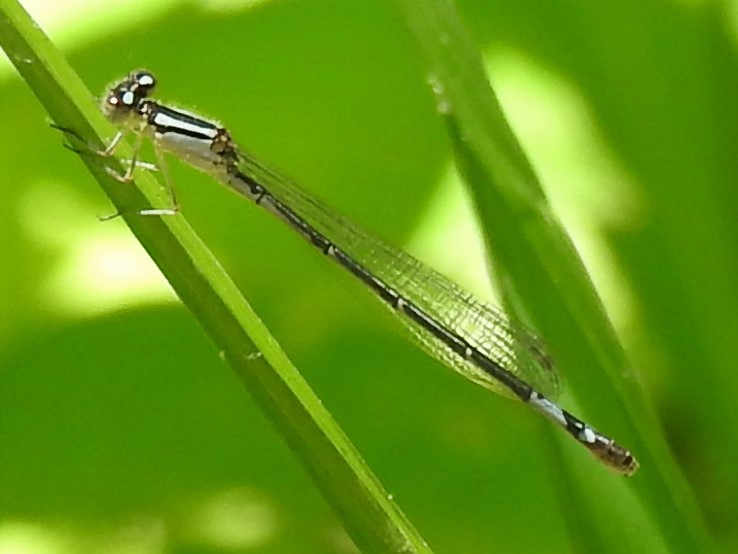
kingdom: Animalia
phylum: Arthropoda
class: Insecta
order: Odonata
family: Coenagrionidae
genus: Enallagma
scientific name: Enallagma aspersum
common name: Azure bluet
